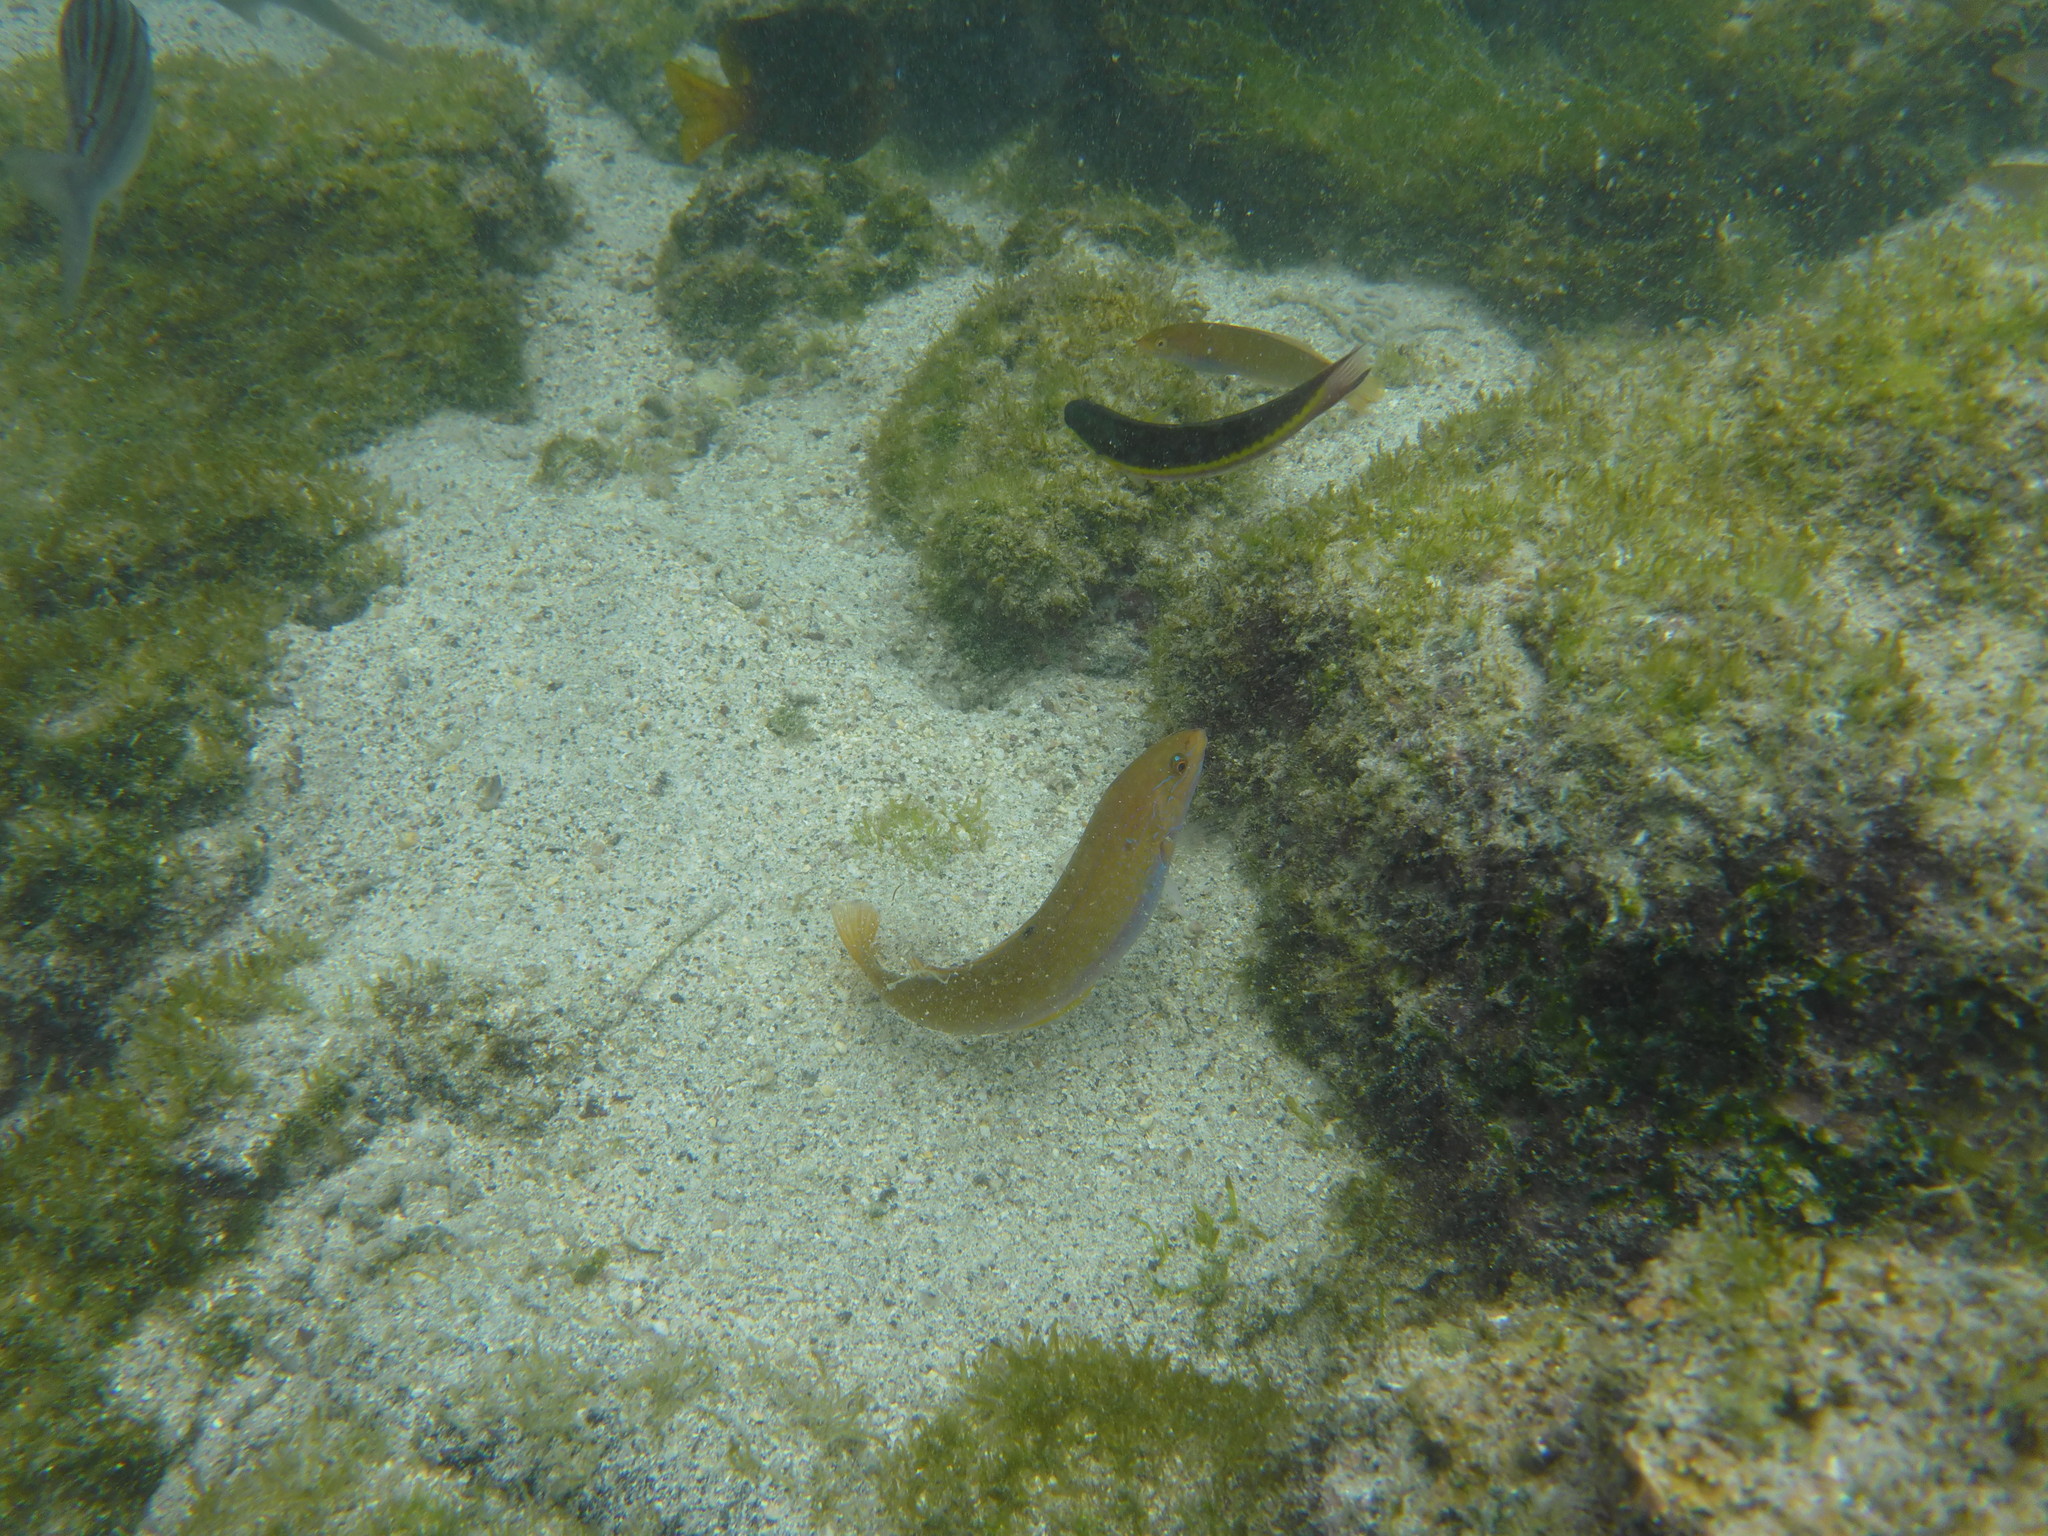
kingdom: Animalia
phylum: Chordata
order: Perciformes
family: Labridae
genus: Halichoeres
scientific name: Halichoeres dispilus
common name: Chameleon wrasse
